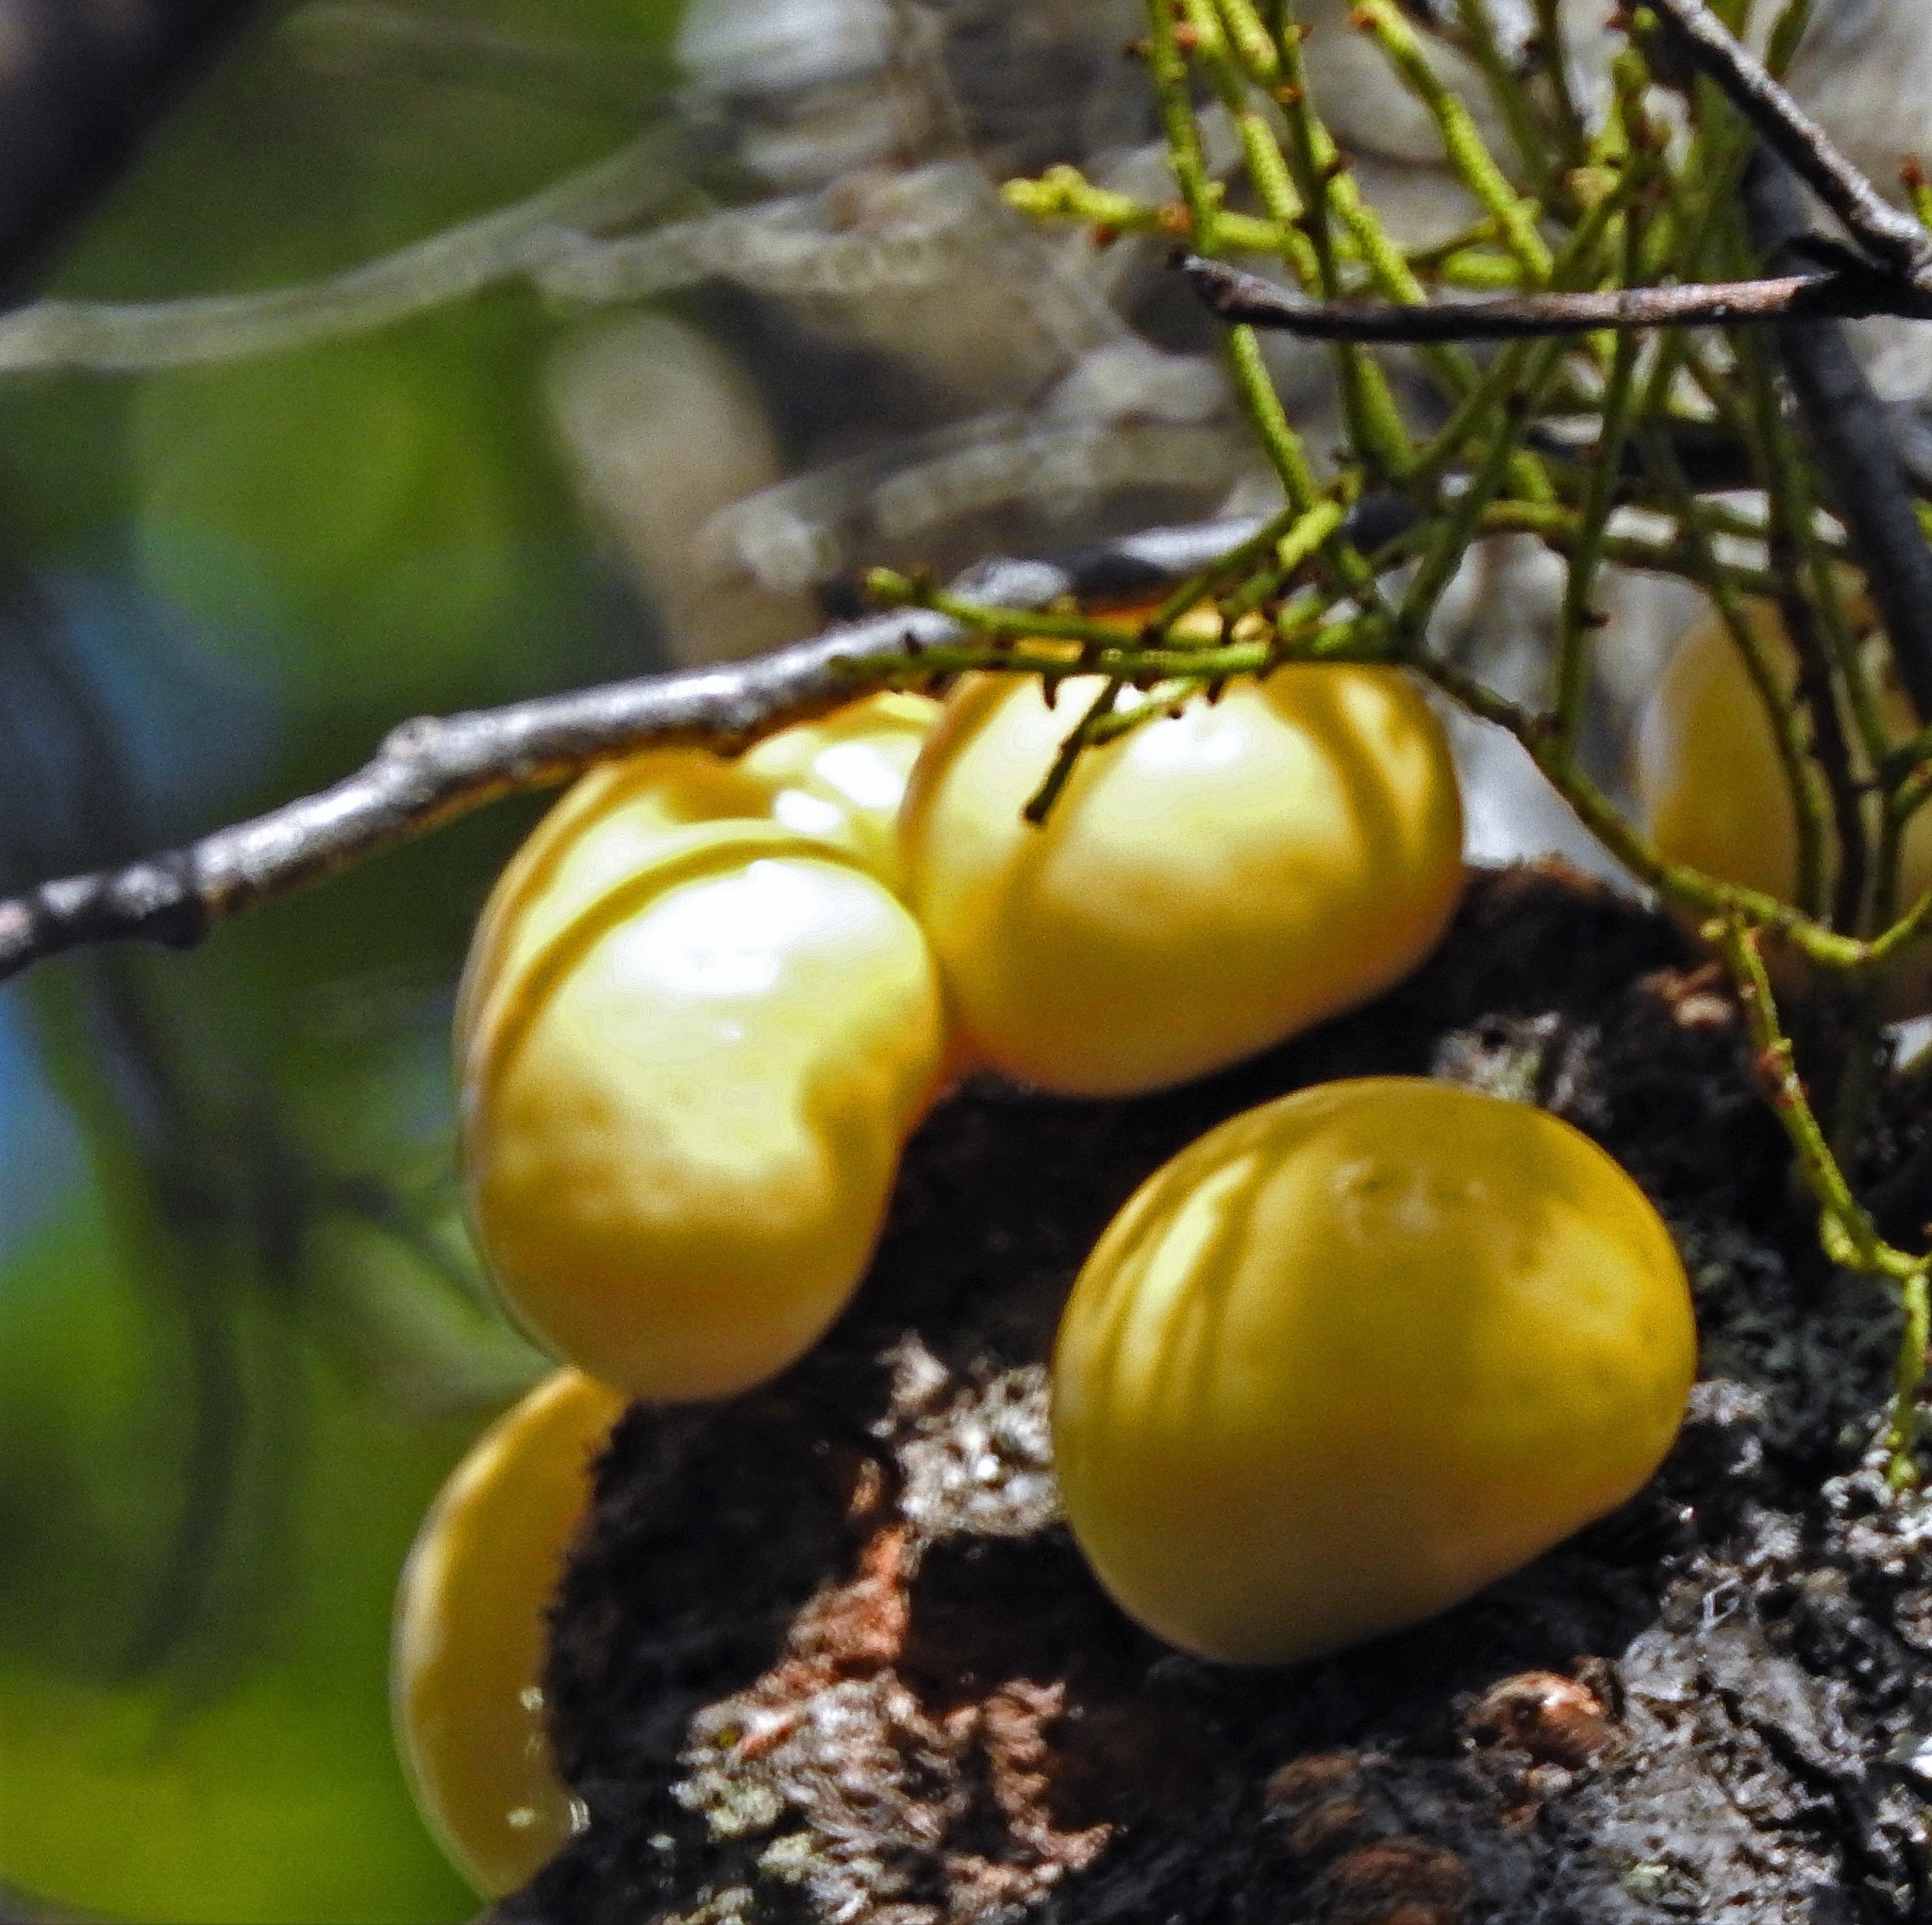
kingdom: Fungi
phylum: Ascomycota
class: Leotiomycetes
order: Cyttariales
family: Cyttariaceae
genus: Cyttaria
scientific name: Cyttaria darwinii
